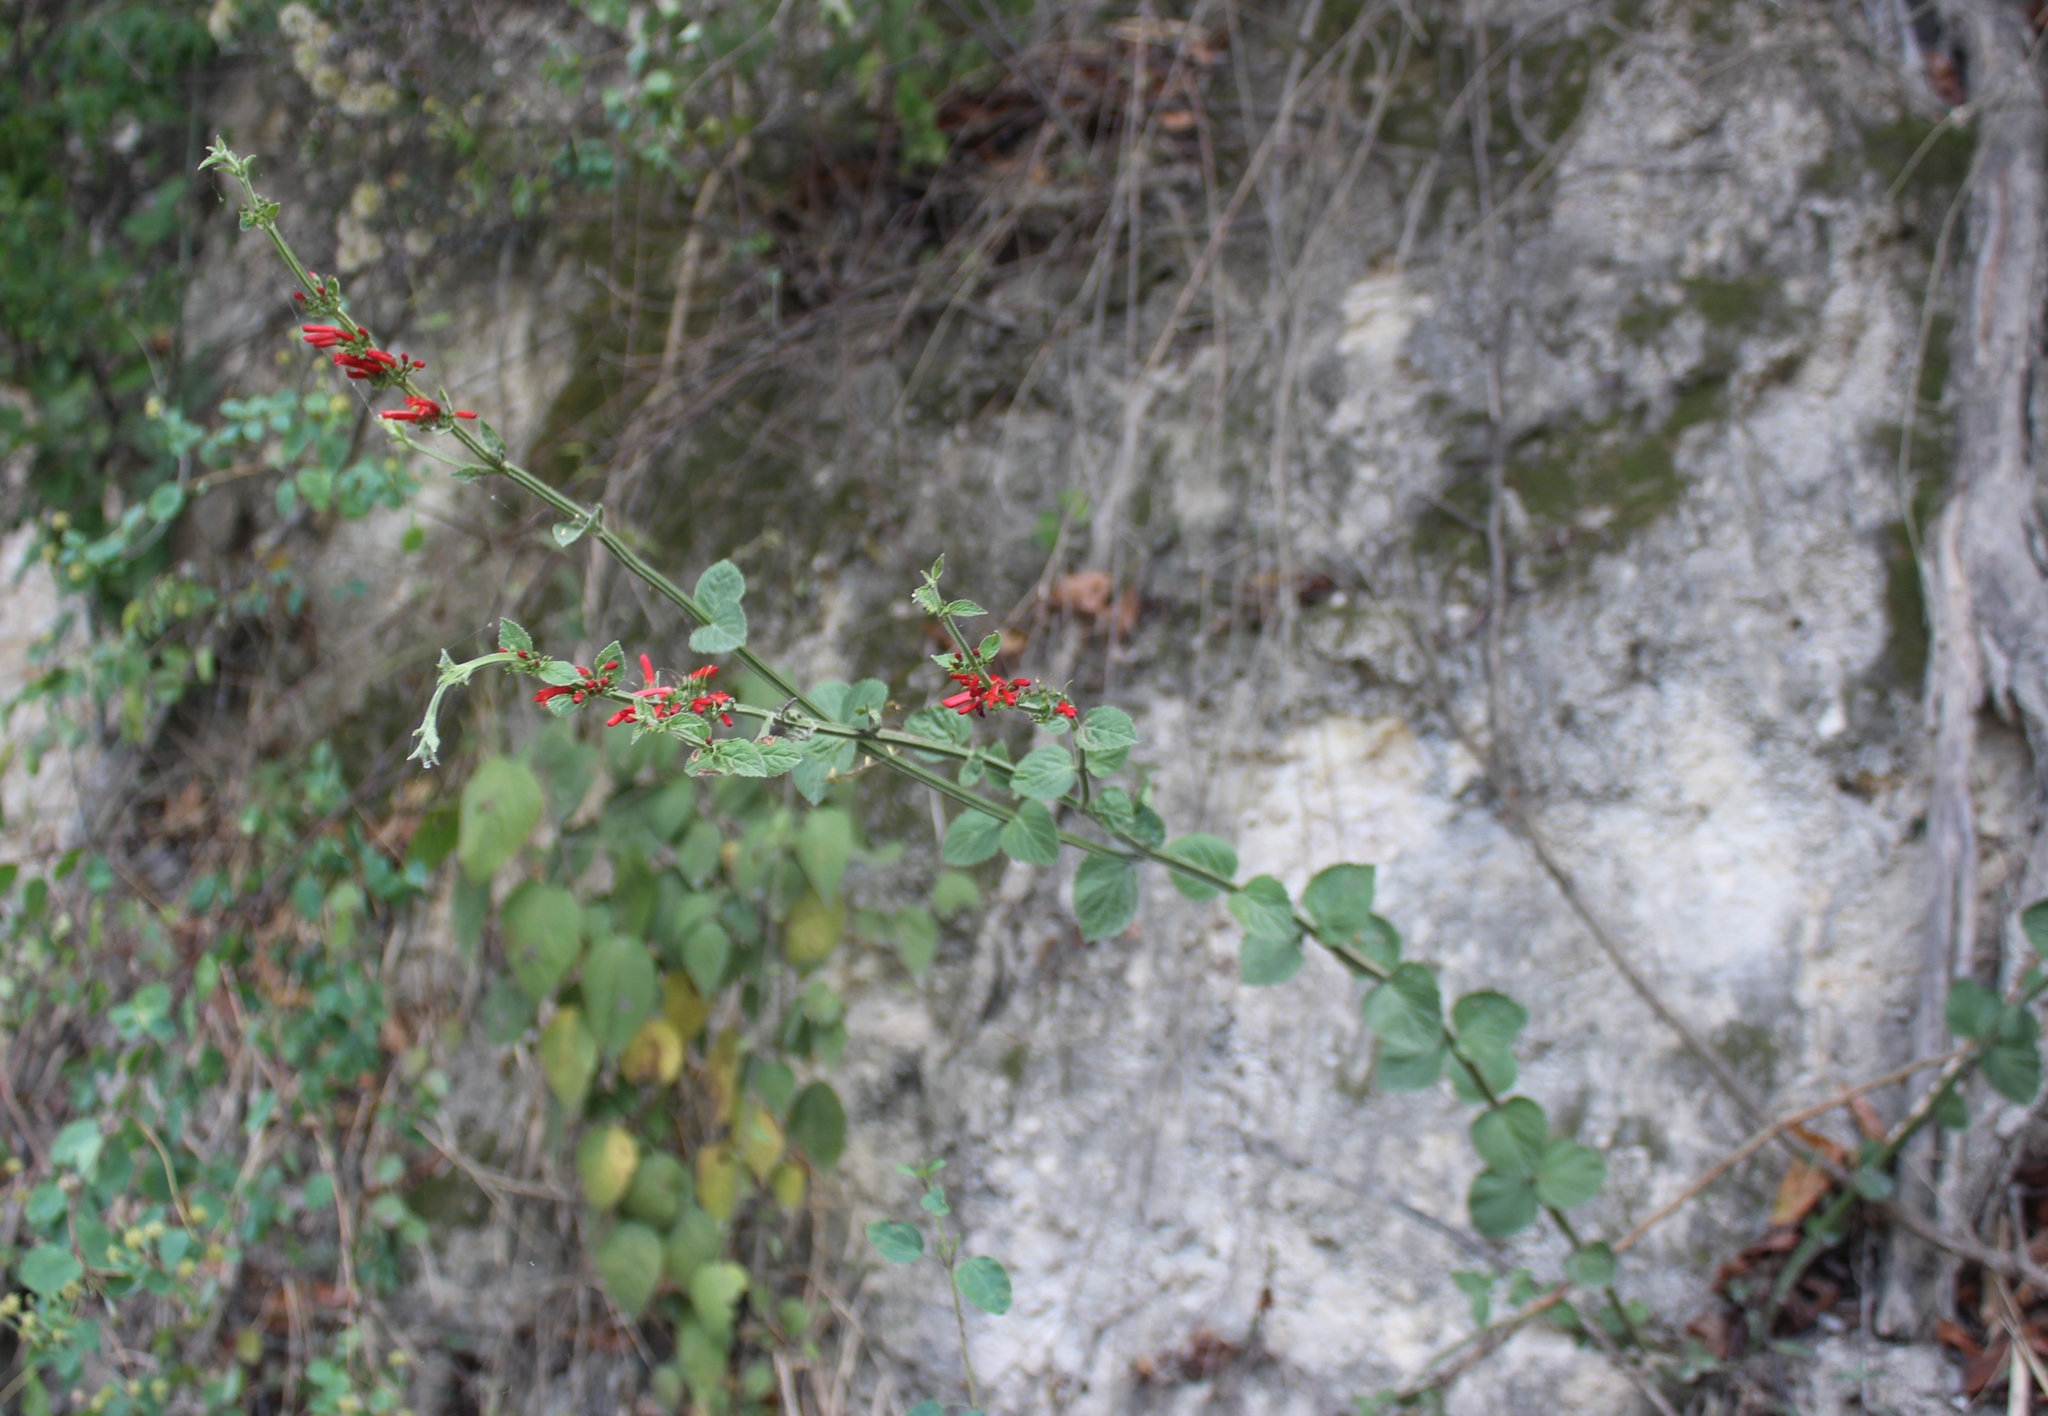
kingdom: Plantae
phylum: Tracheophyta
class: Magnoliopsida
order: Lamiales
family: Plantaginaceae
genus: Russelia
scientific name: Russelia sarmentosa
